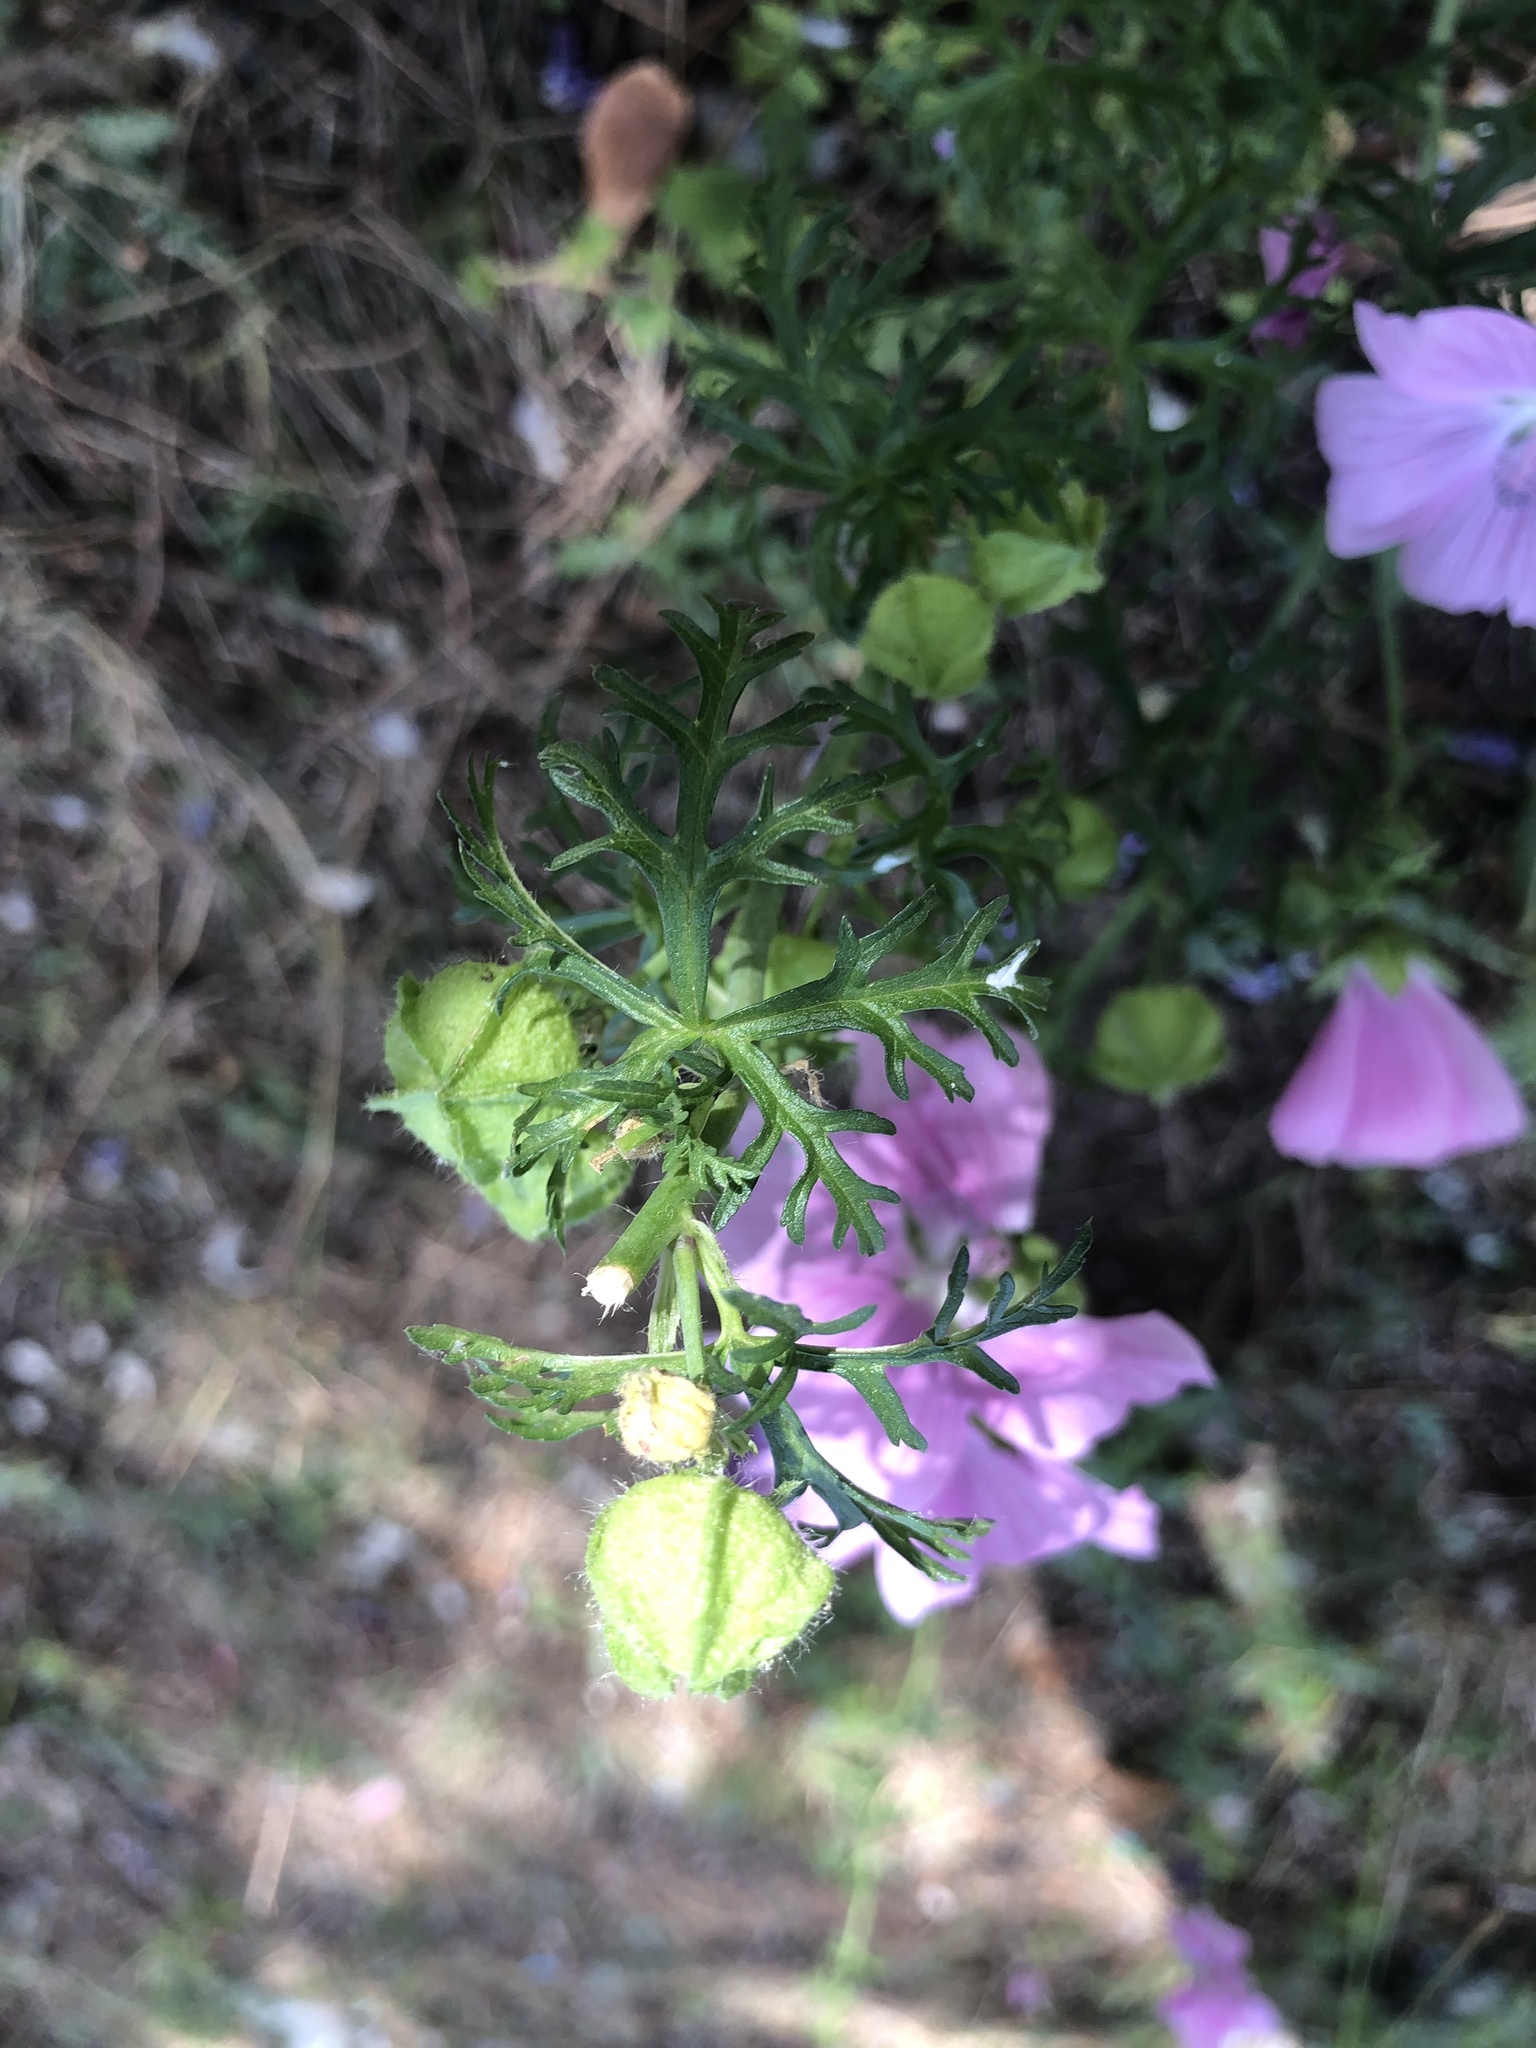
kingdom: Plantae
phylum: Tracheophyta
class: Magnoliopsida
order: Malvales
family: Malvaceae
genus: Malva
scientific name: Malva moschata
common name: Musk mallow
